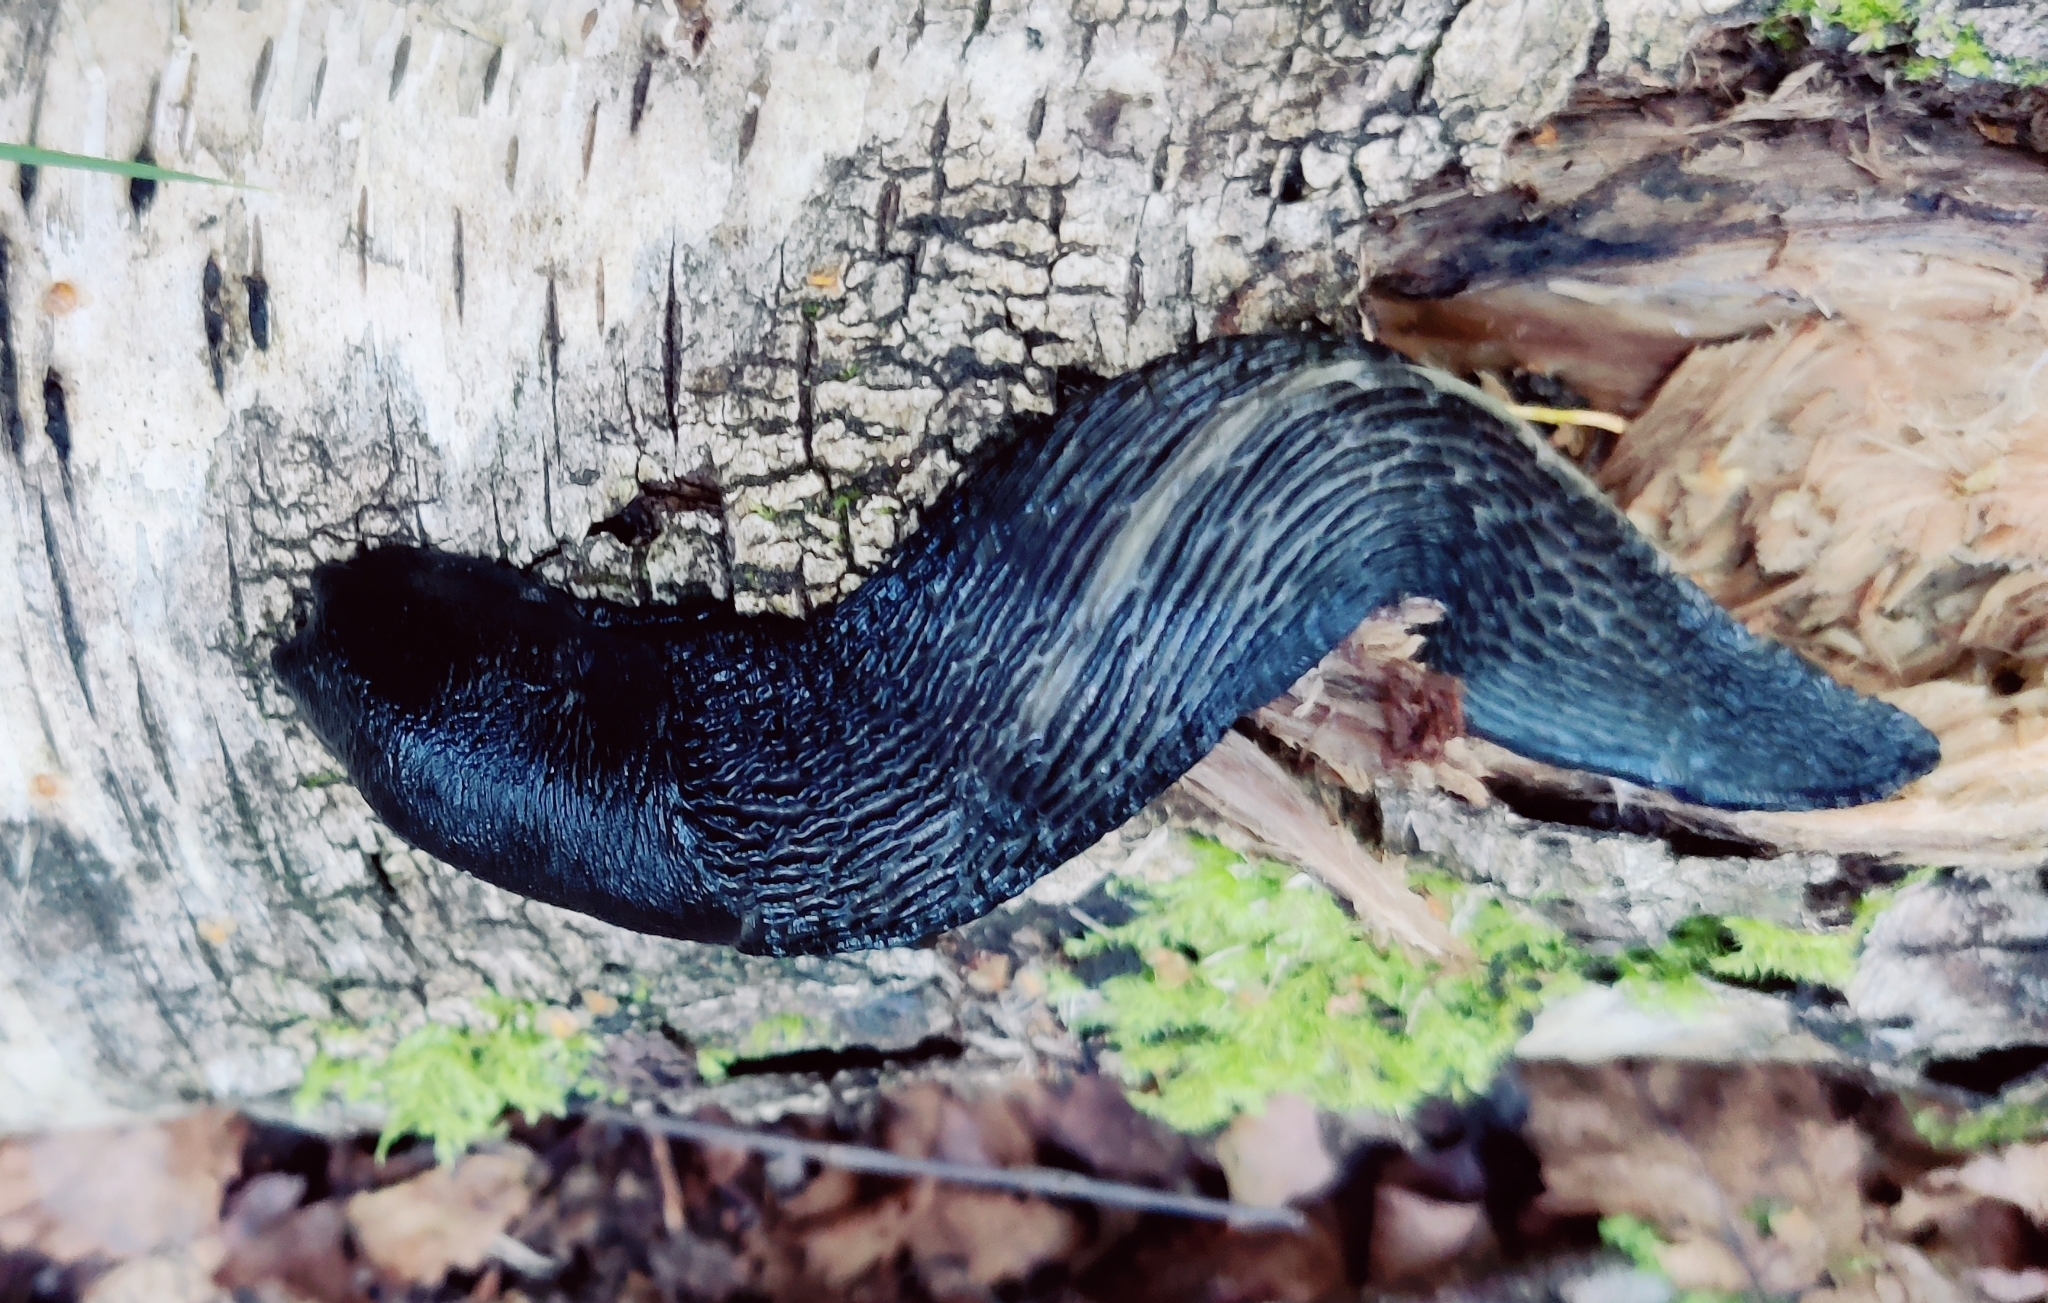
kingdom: Animalia
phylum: Mollusca
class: Gastropoda
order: Stylommatophora
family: Limacidae
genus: Limax
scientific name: Limax cinereoniger
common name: Ash-black slug
